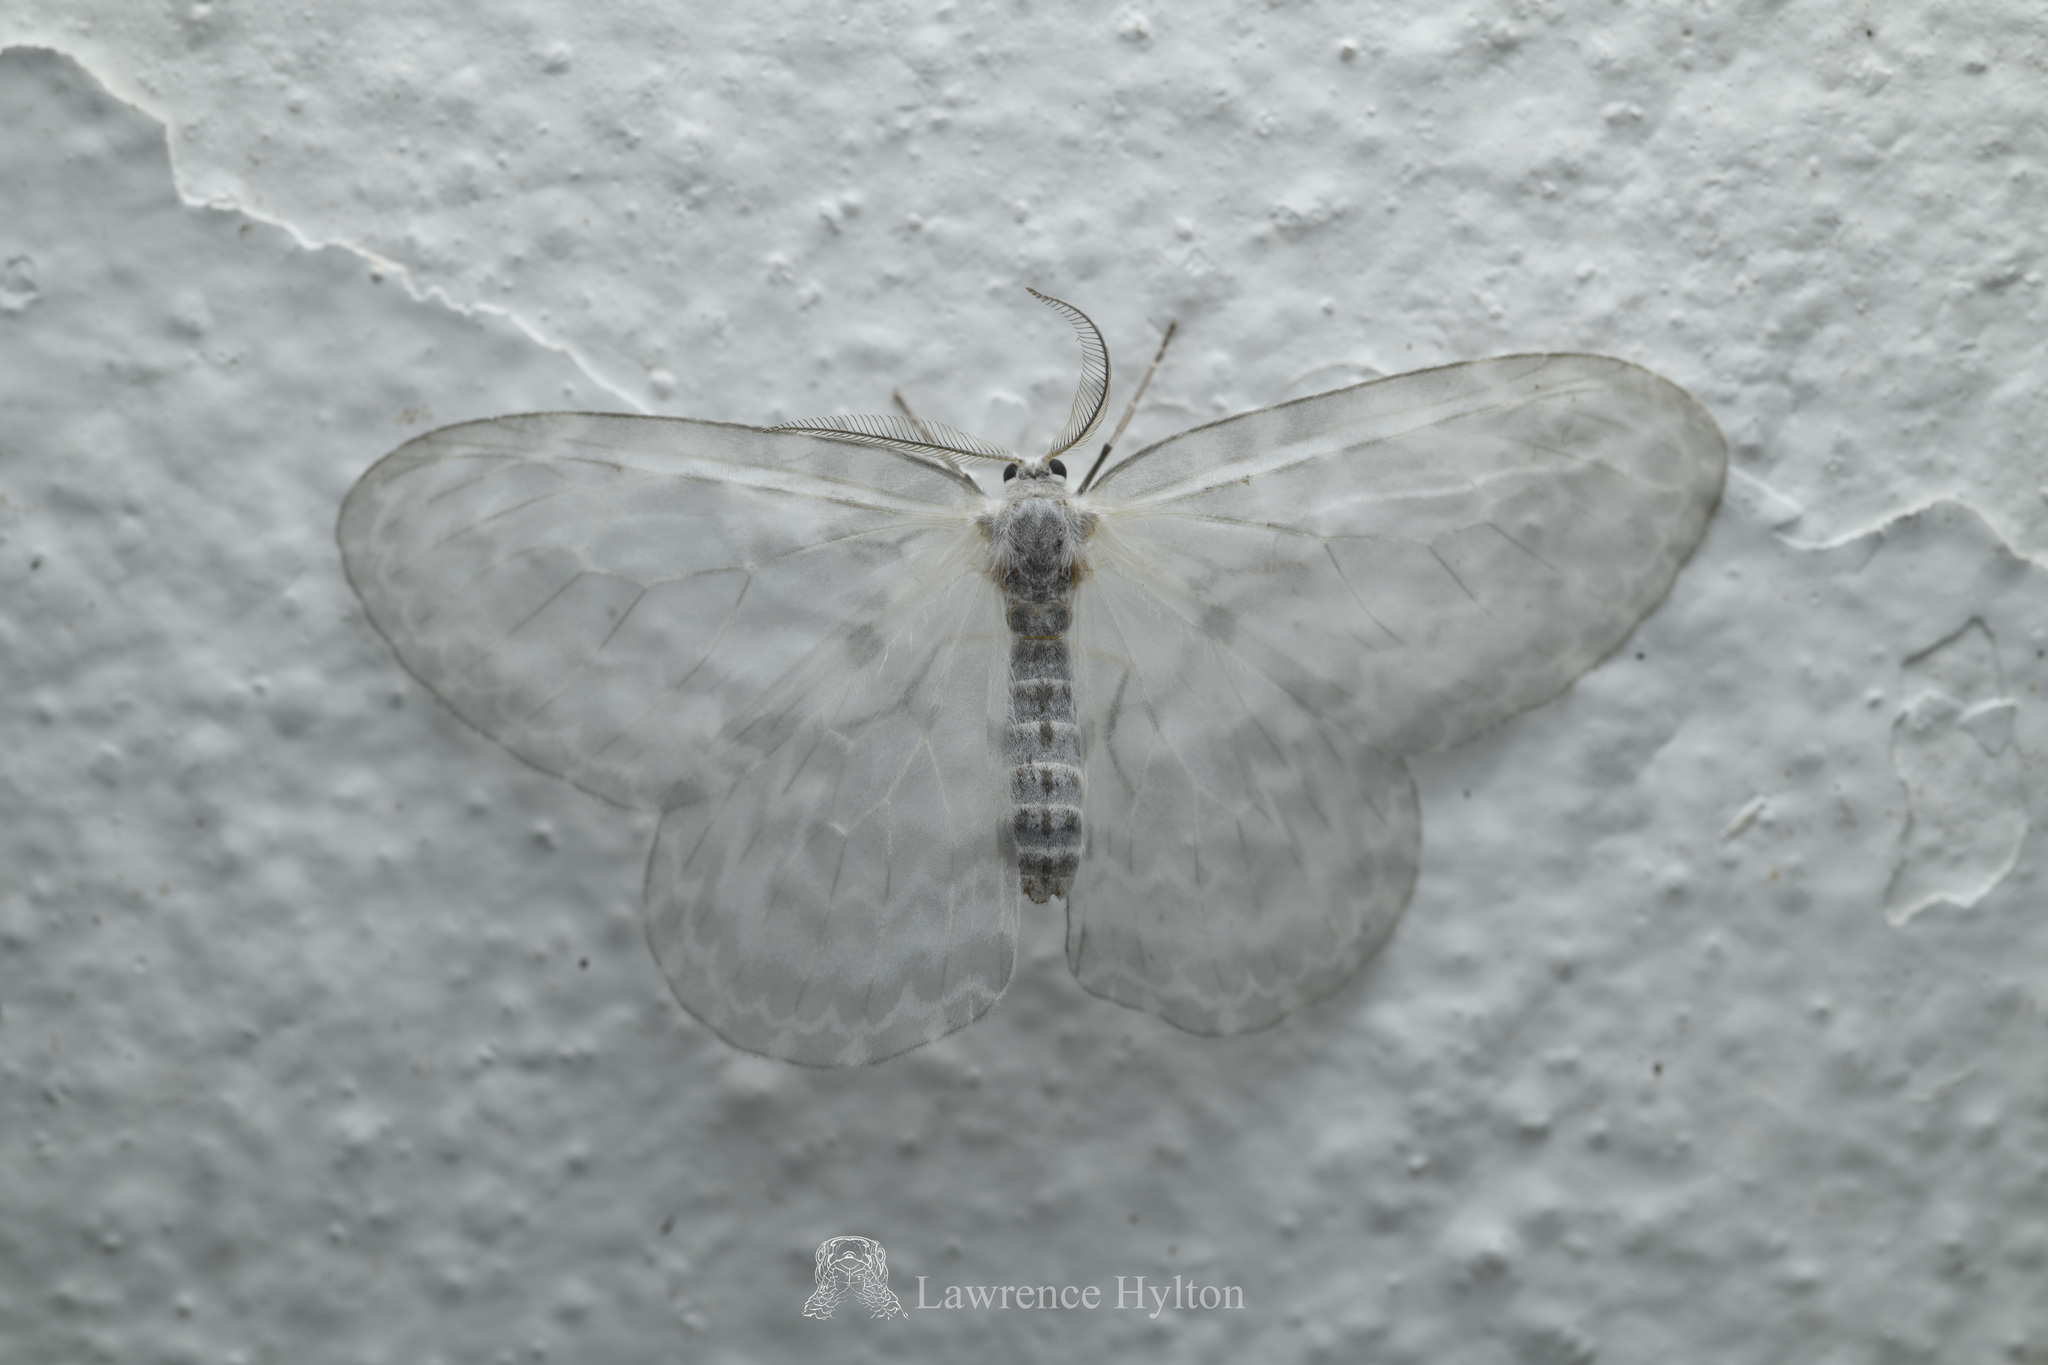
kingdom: Animalia
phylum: Arthropoda
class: Insecta
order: Lepidoptera
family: Drepanidae
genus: Deroca
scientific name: Deroca hyalina
